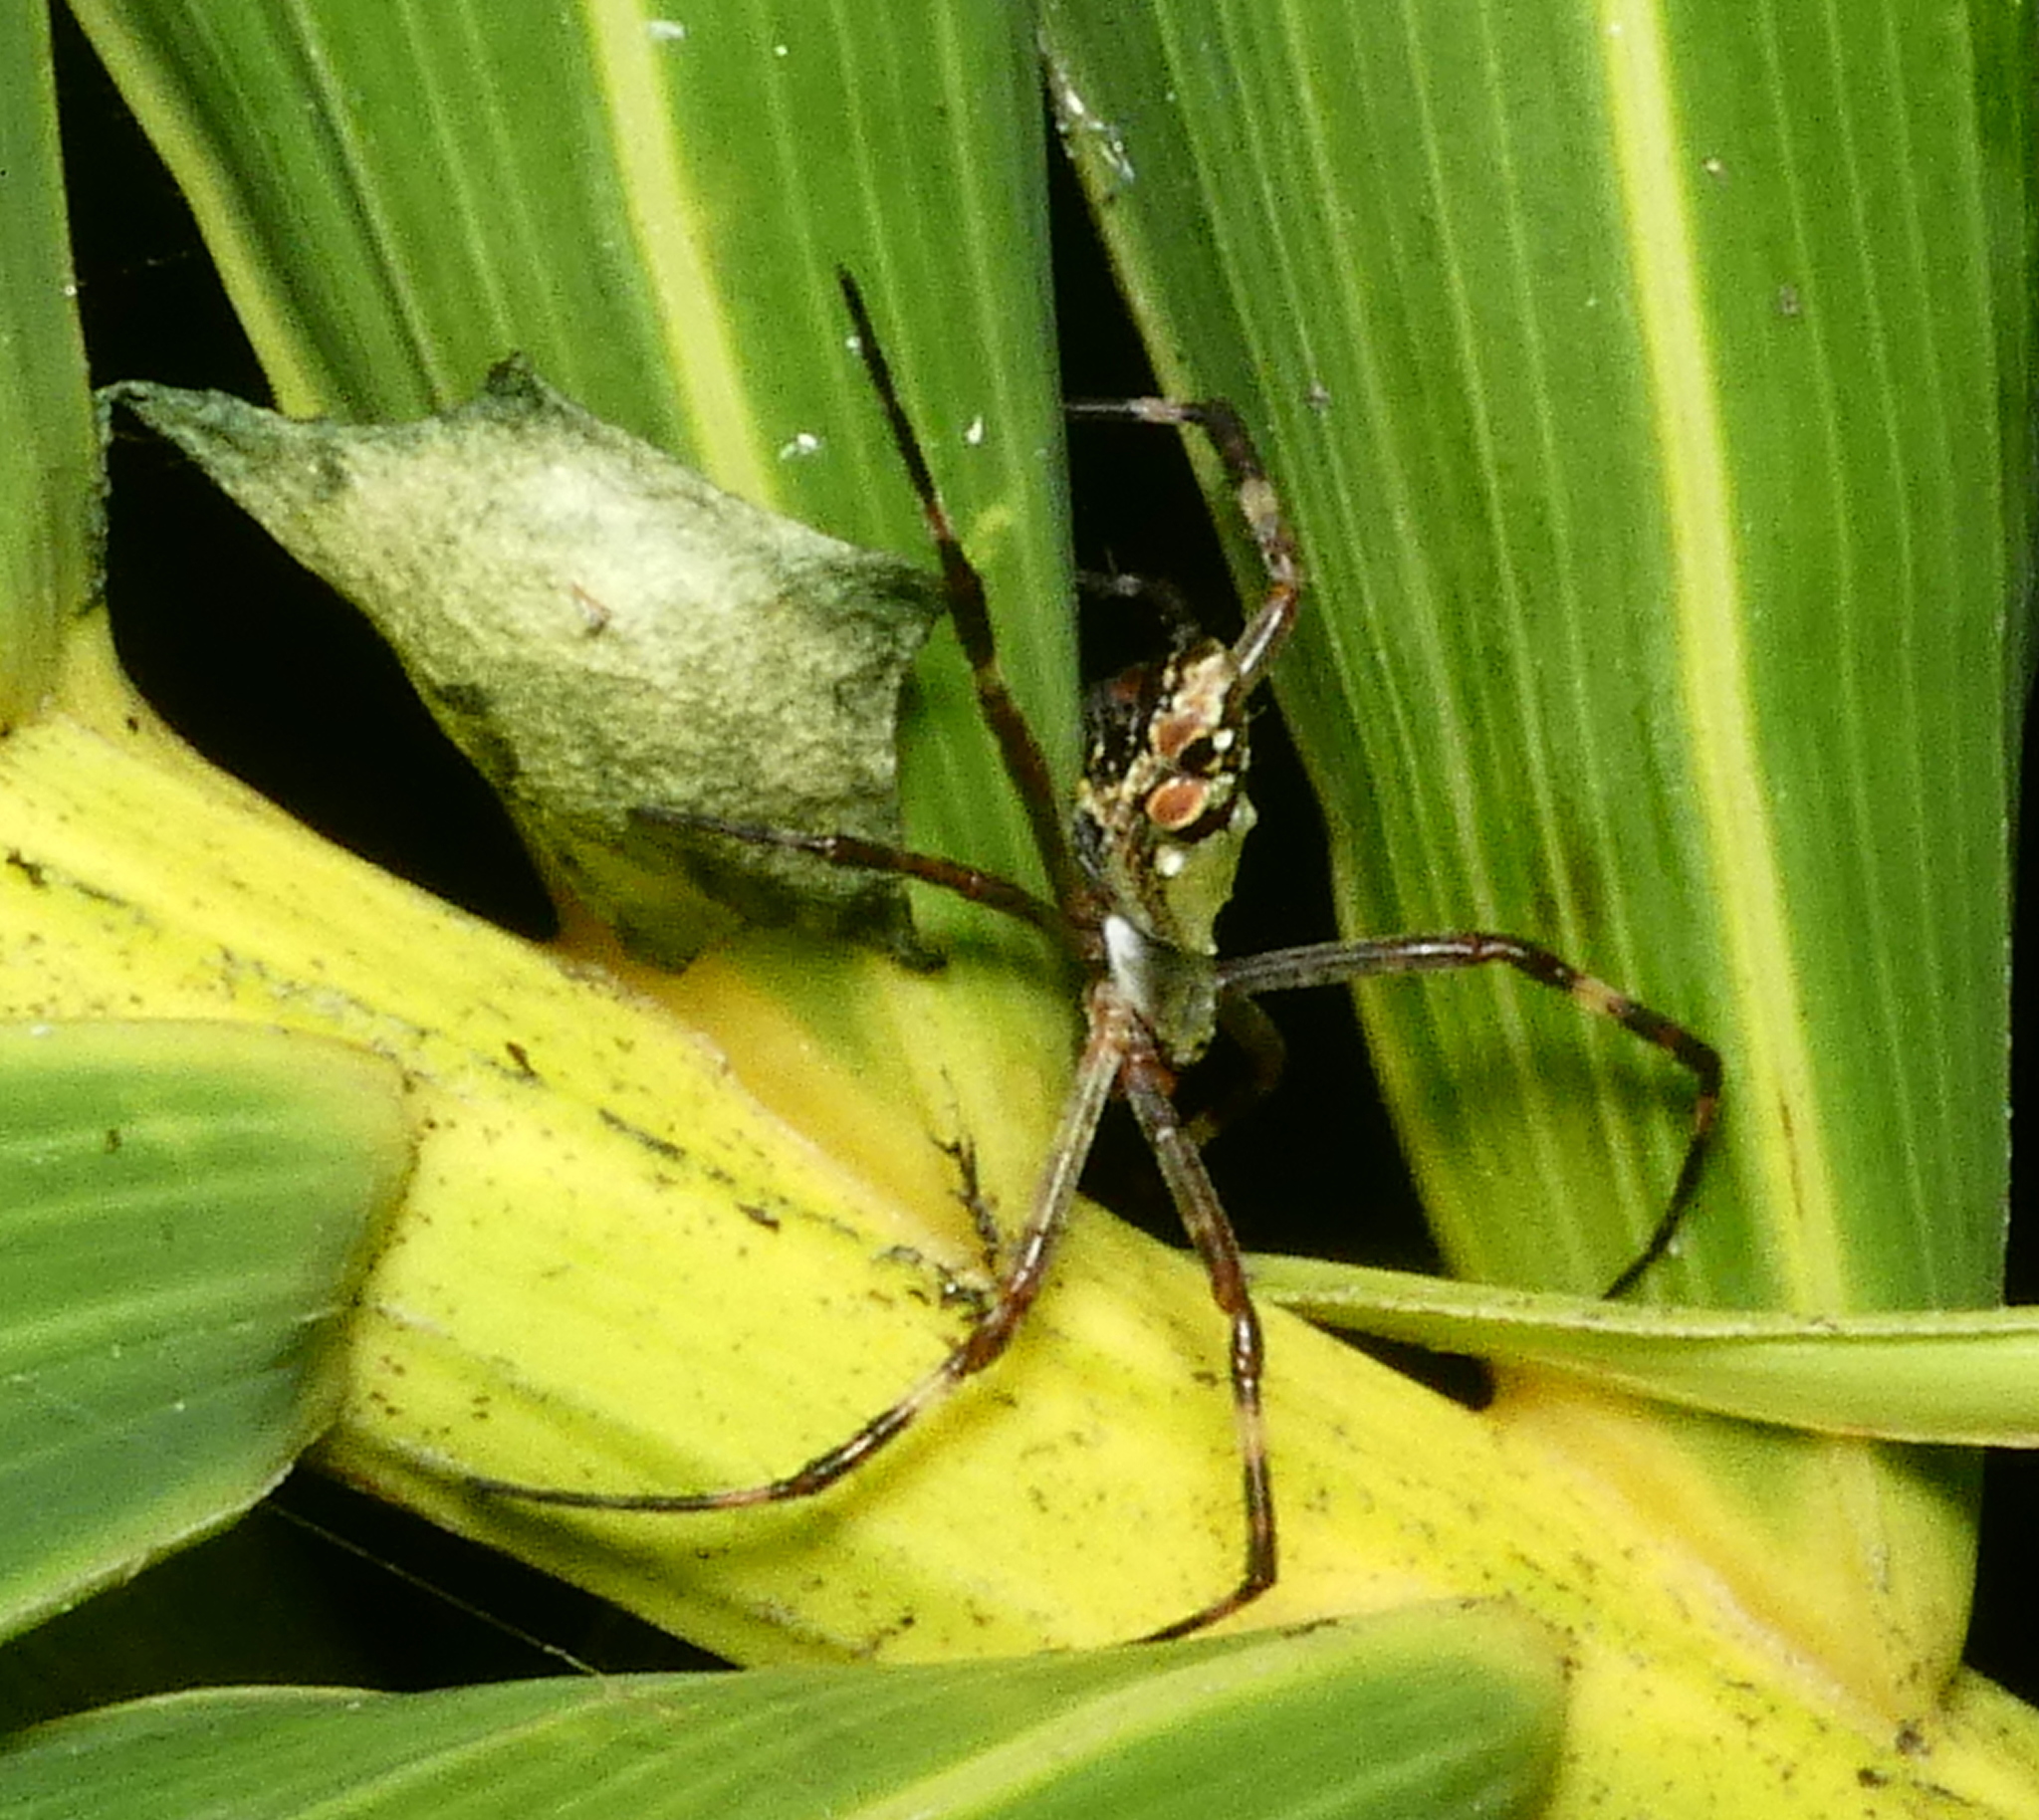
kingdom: Animalia
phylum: Arthropoda
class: Arachnida
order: Araneae
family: Araneidae
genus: Argiope
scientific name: Argiope argentata
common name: Orb weavers
